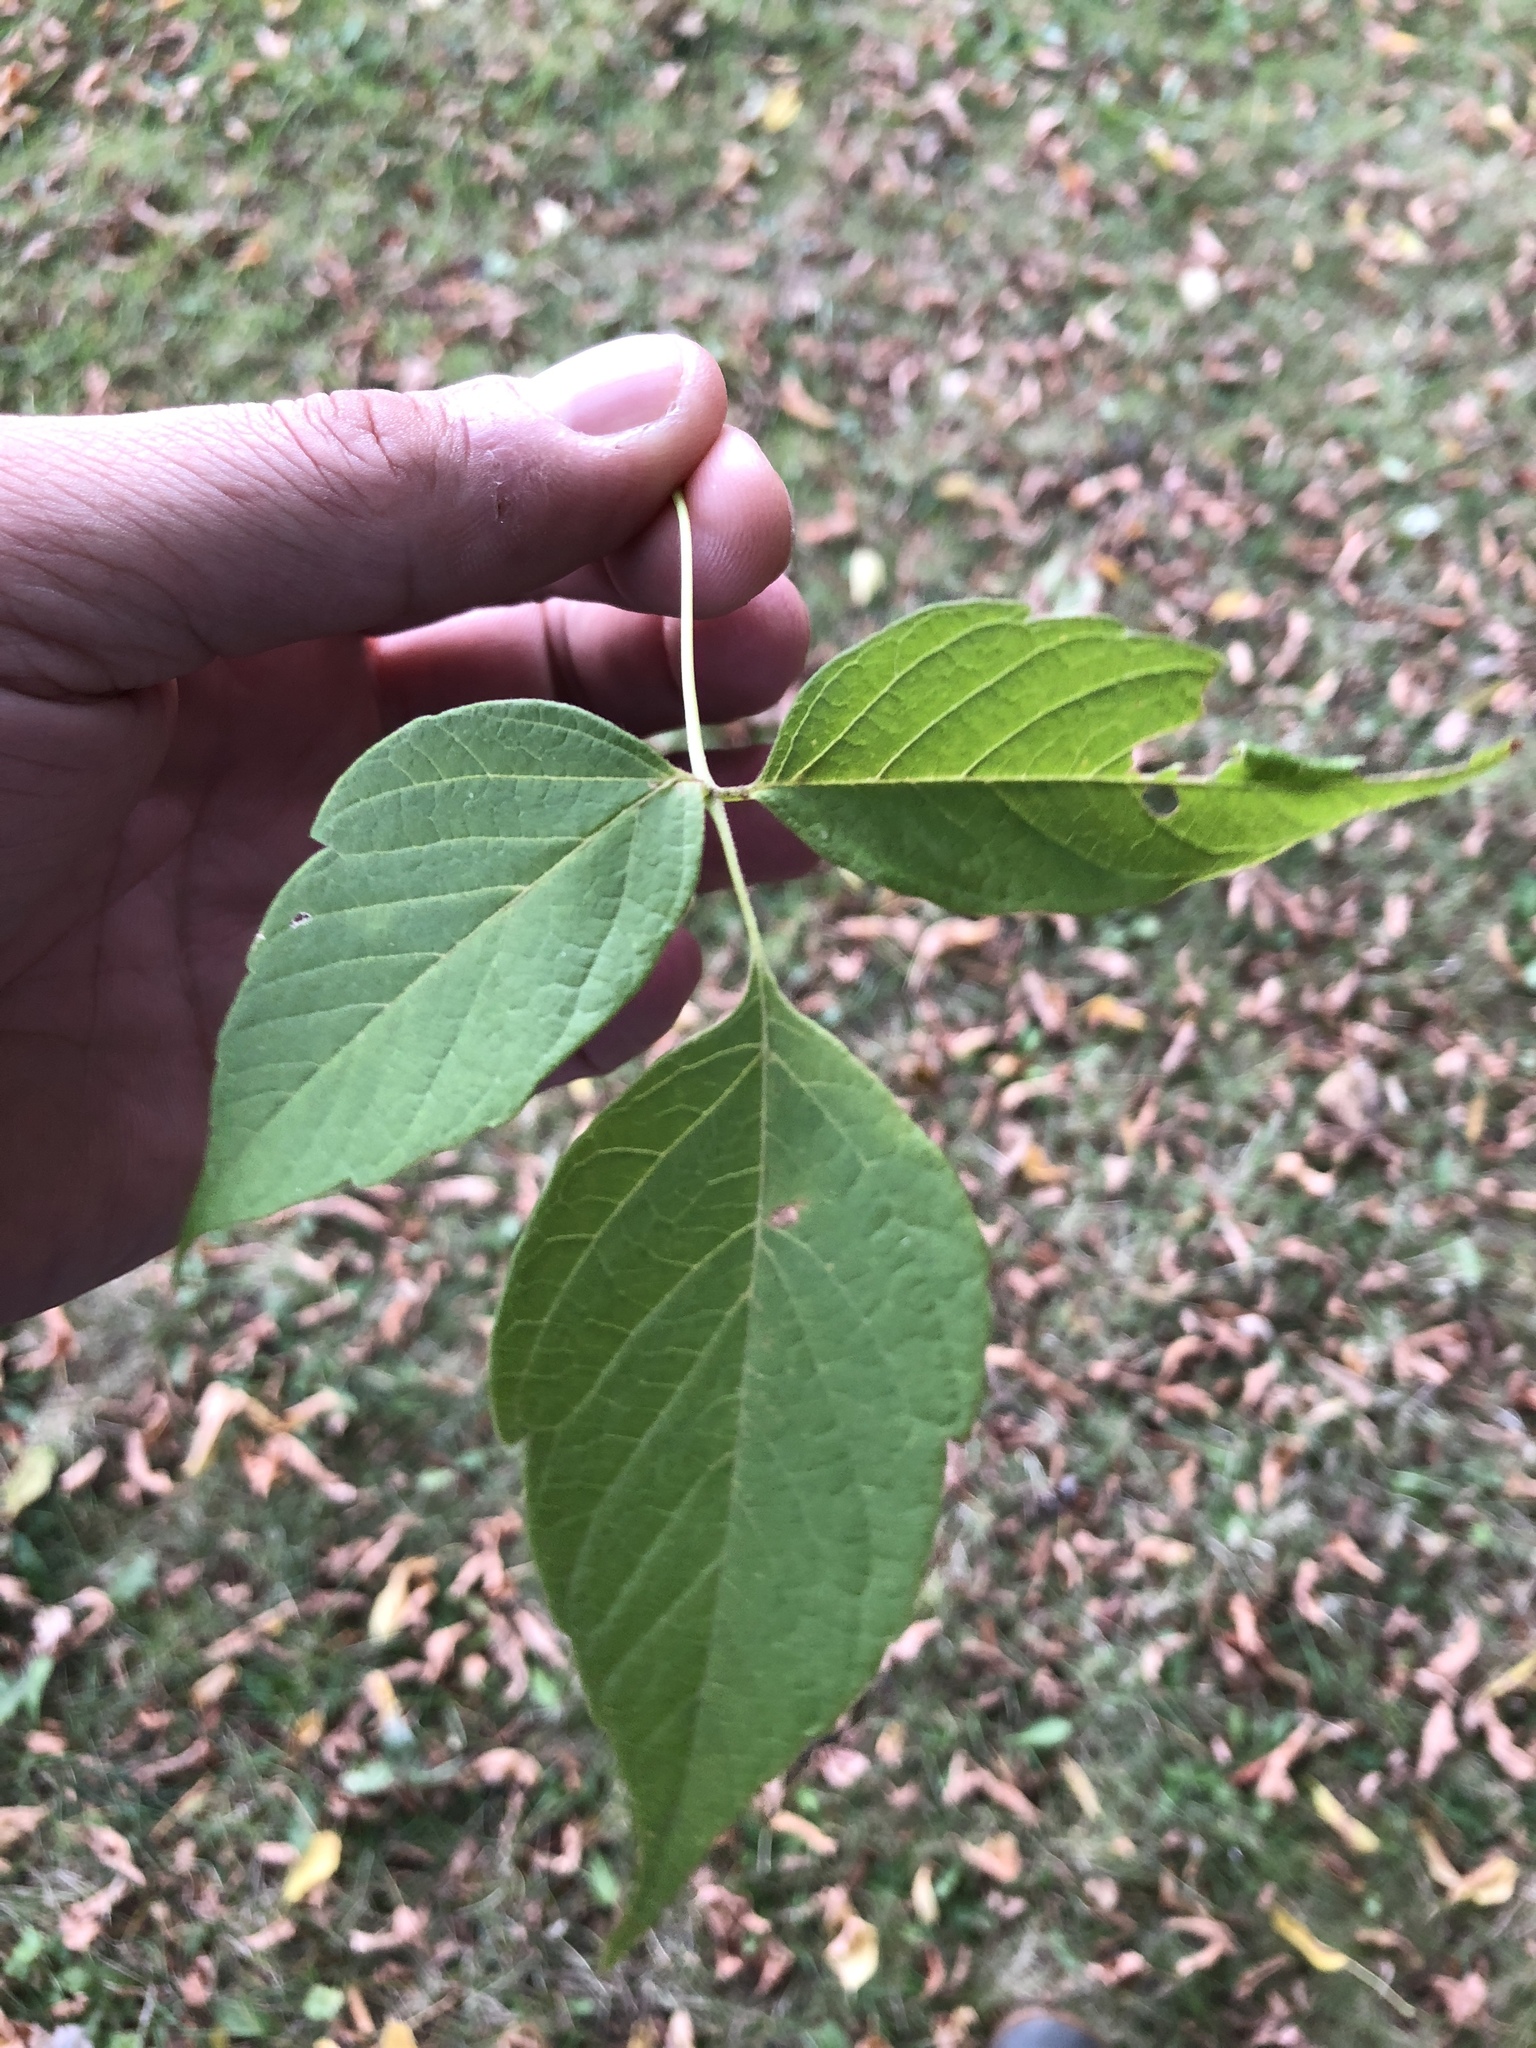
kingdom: Plantae
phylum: Tracheophyta
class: Magnoliopsida
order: Sapindales
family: Sapindaceae
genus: Acer
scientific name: Acer negundo
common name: Ashleaf maple
